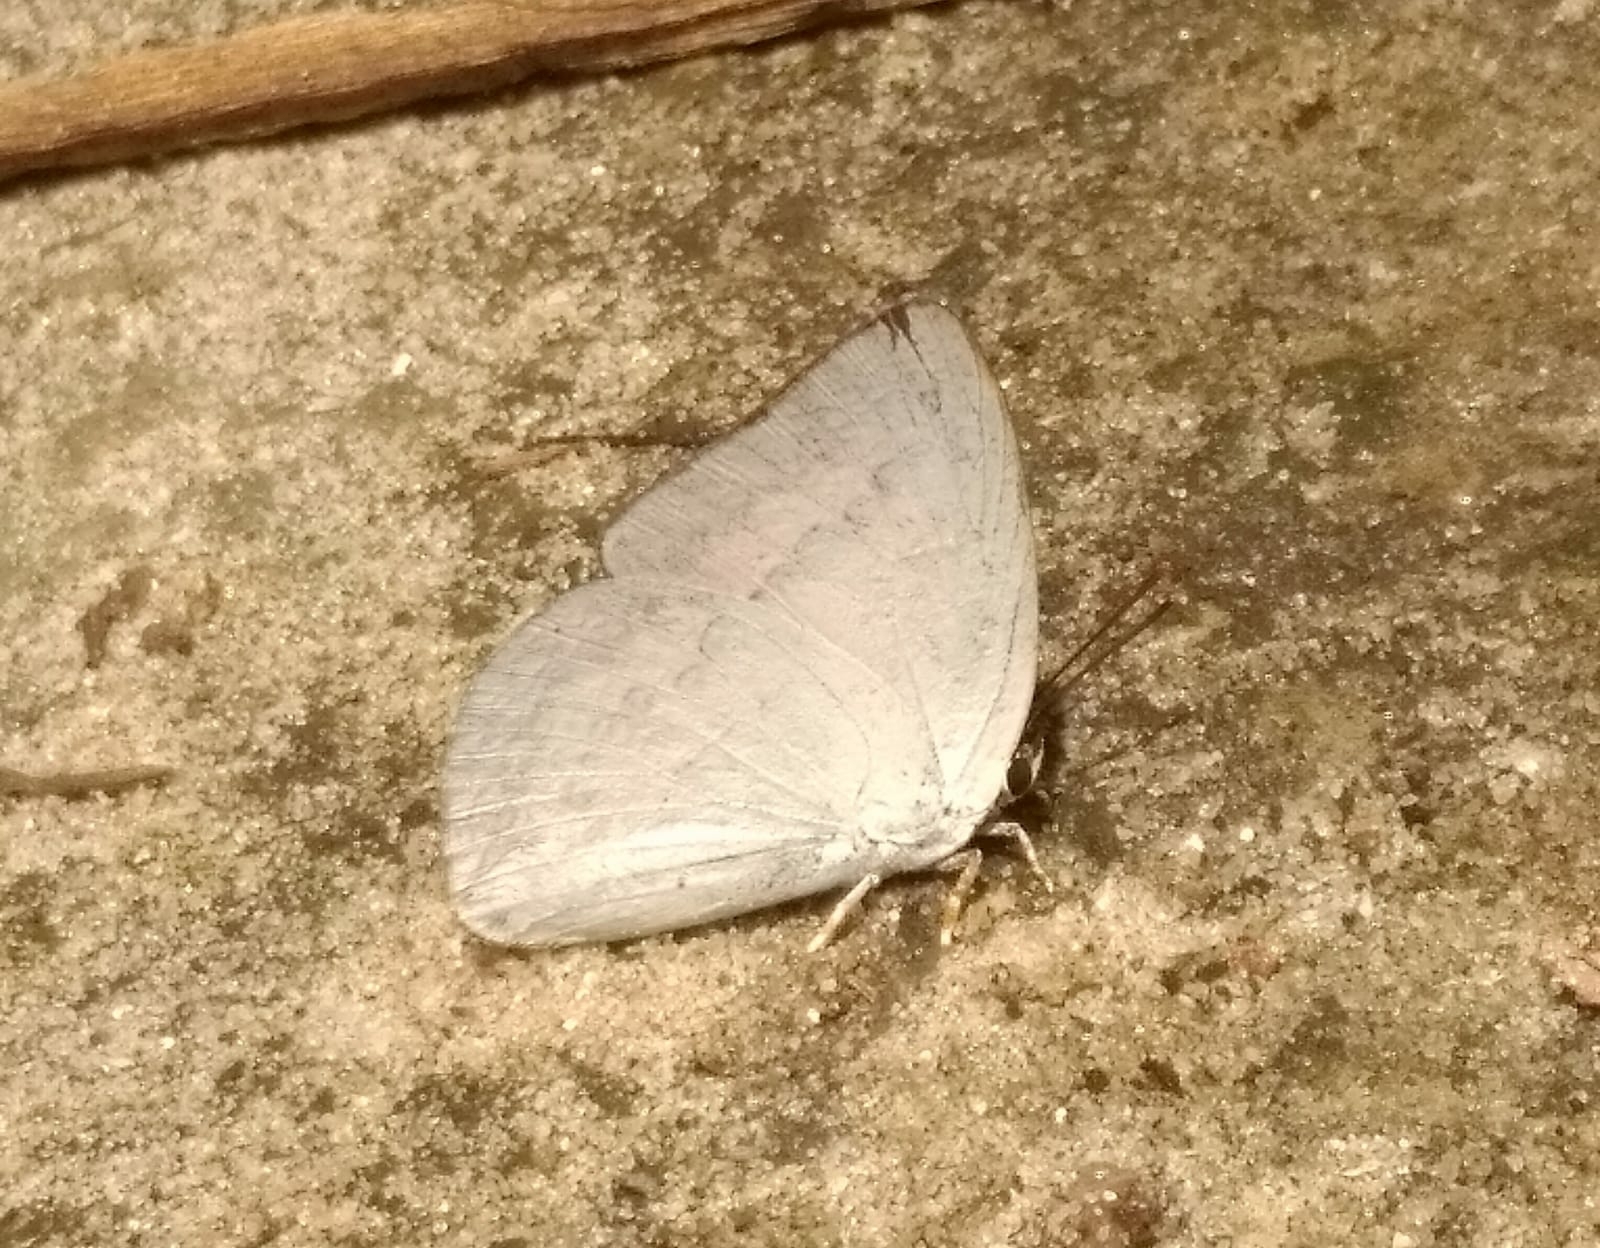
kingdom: Animalia
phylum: Arthropoda
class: Insecta
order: Lepidoptera
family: Lycaenidae
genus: Curetis
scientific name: Curetis thetis
